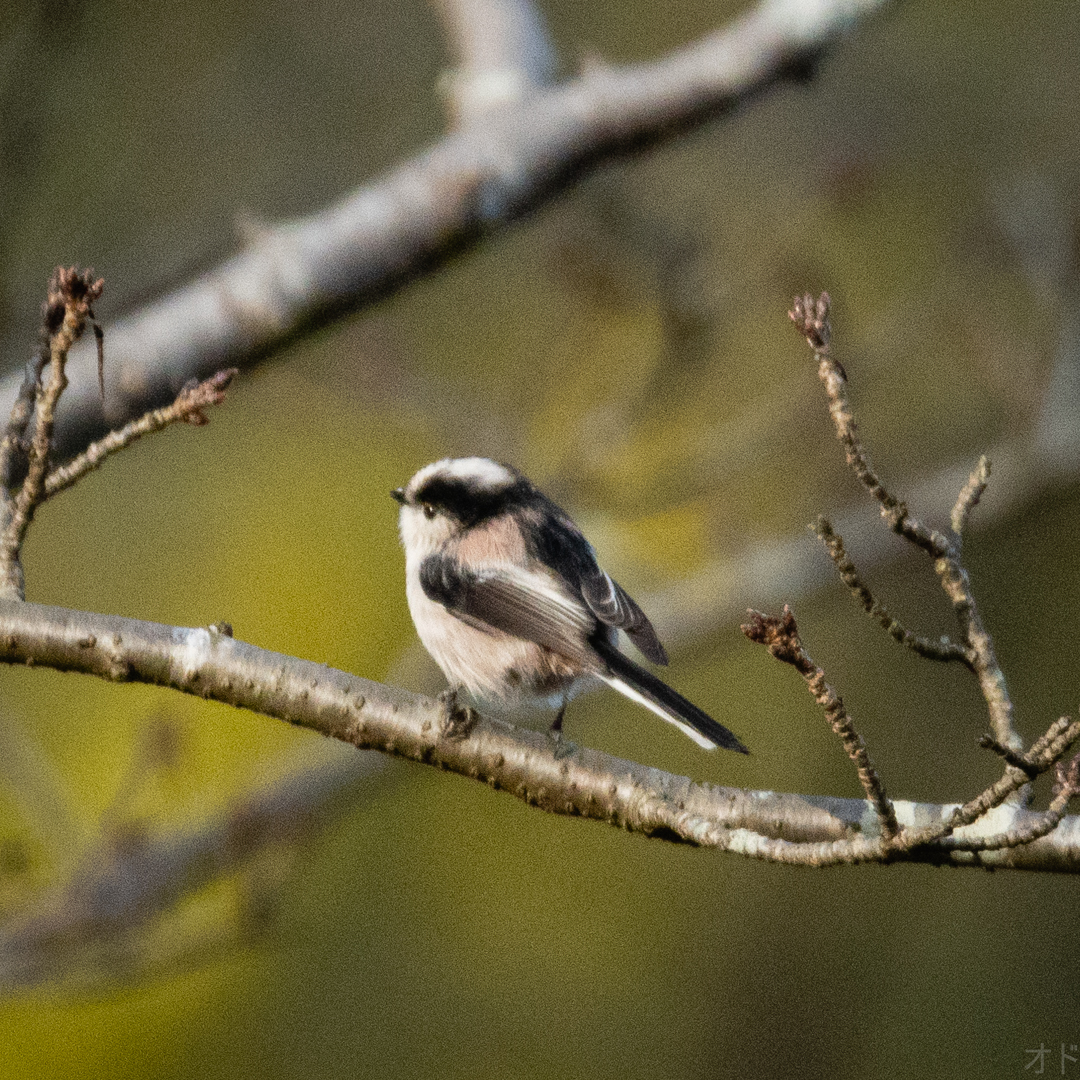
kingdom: Animalia
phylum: Chordata
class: Aves
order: Passeriformes
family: Aegithalidae
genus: Aegithalos
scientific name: Aegithalos caudatus
